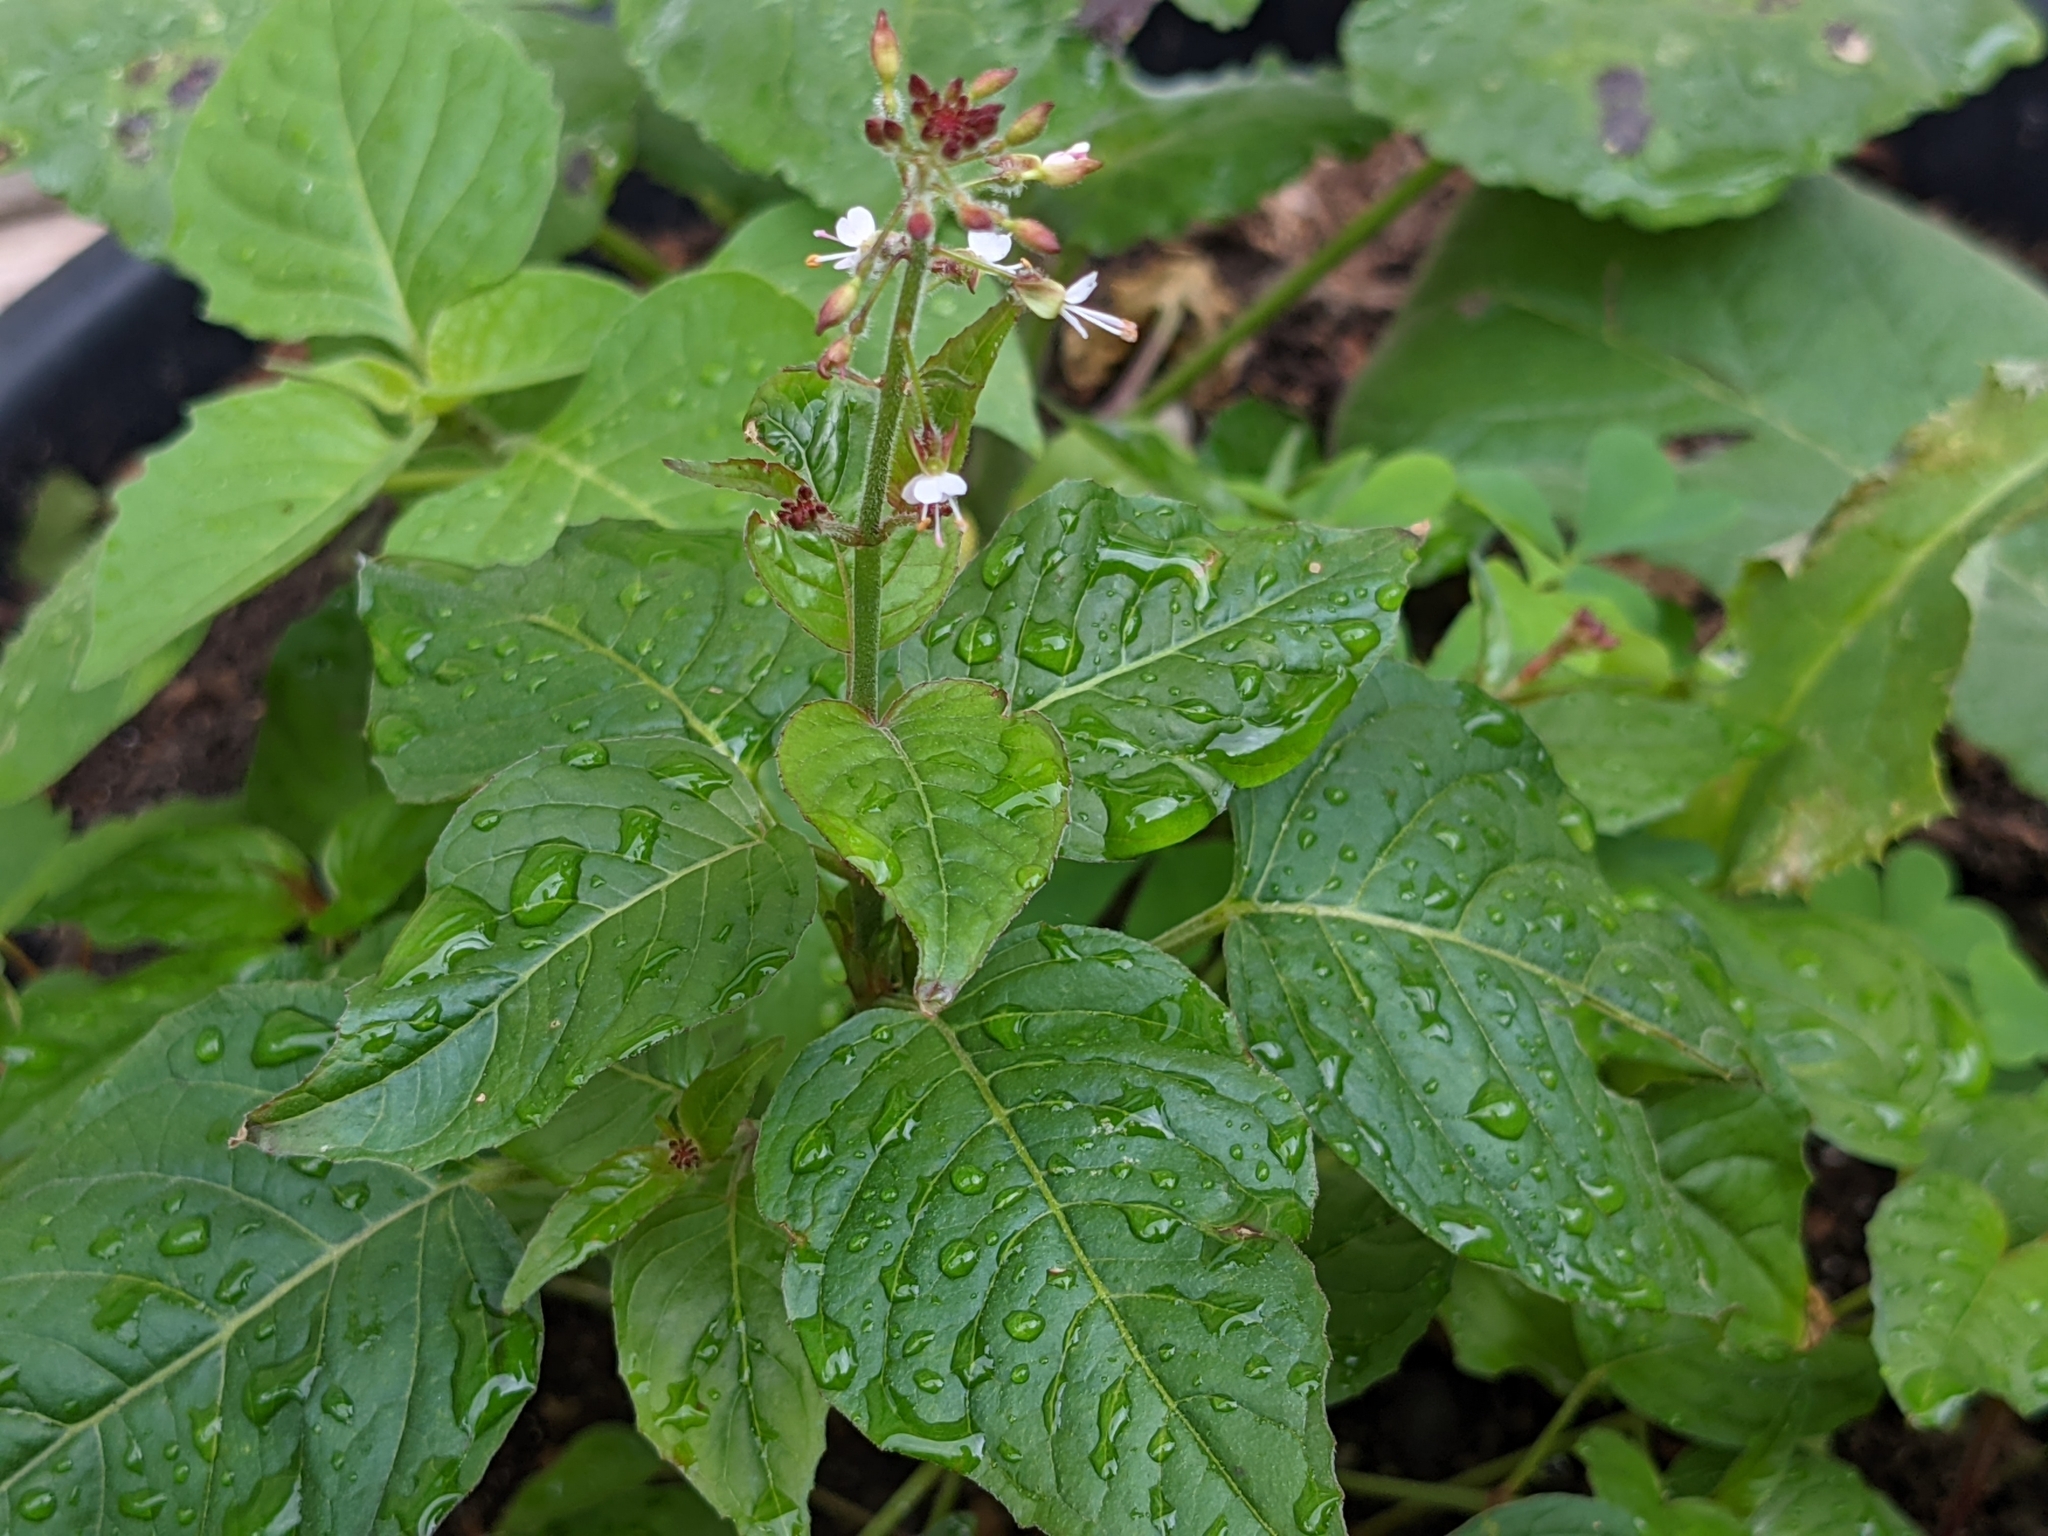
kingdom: Plantae
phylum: Tracheophyta
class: Magnoliopsida
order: Myrtales
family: Onagraceae
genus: Circaea
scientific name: Circaea lutetiana
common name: Enchanter's-nightshade
